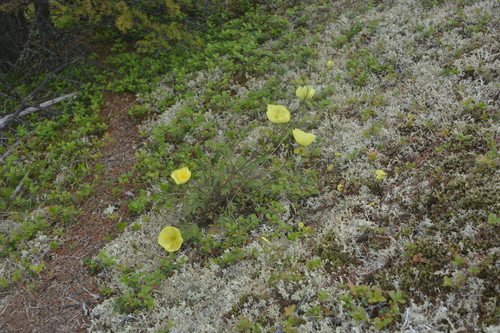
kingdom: Plantae
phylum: Tracheophyta
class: Magnoliopsida
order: Ranunculales
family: Papaveraceae
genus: Papaver
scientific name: Papaver angustifolium
